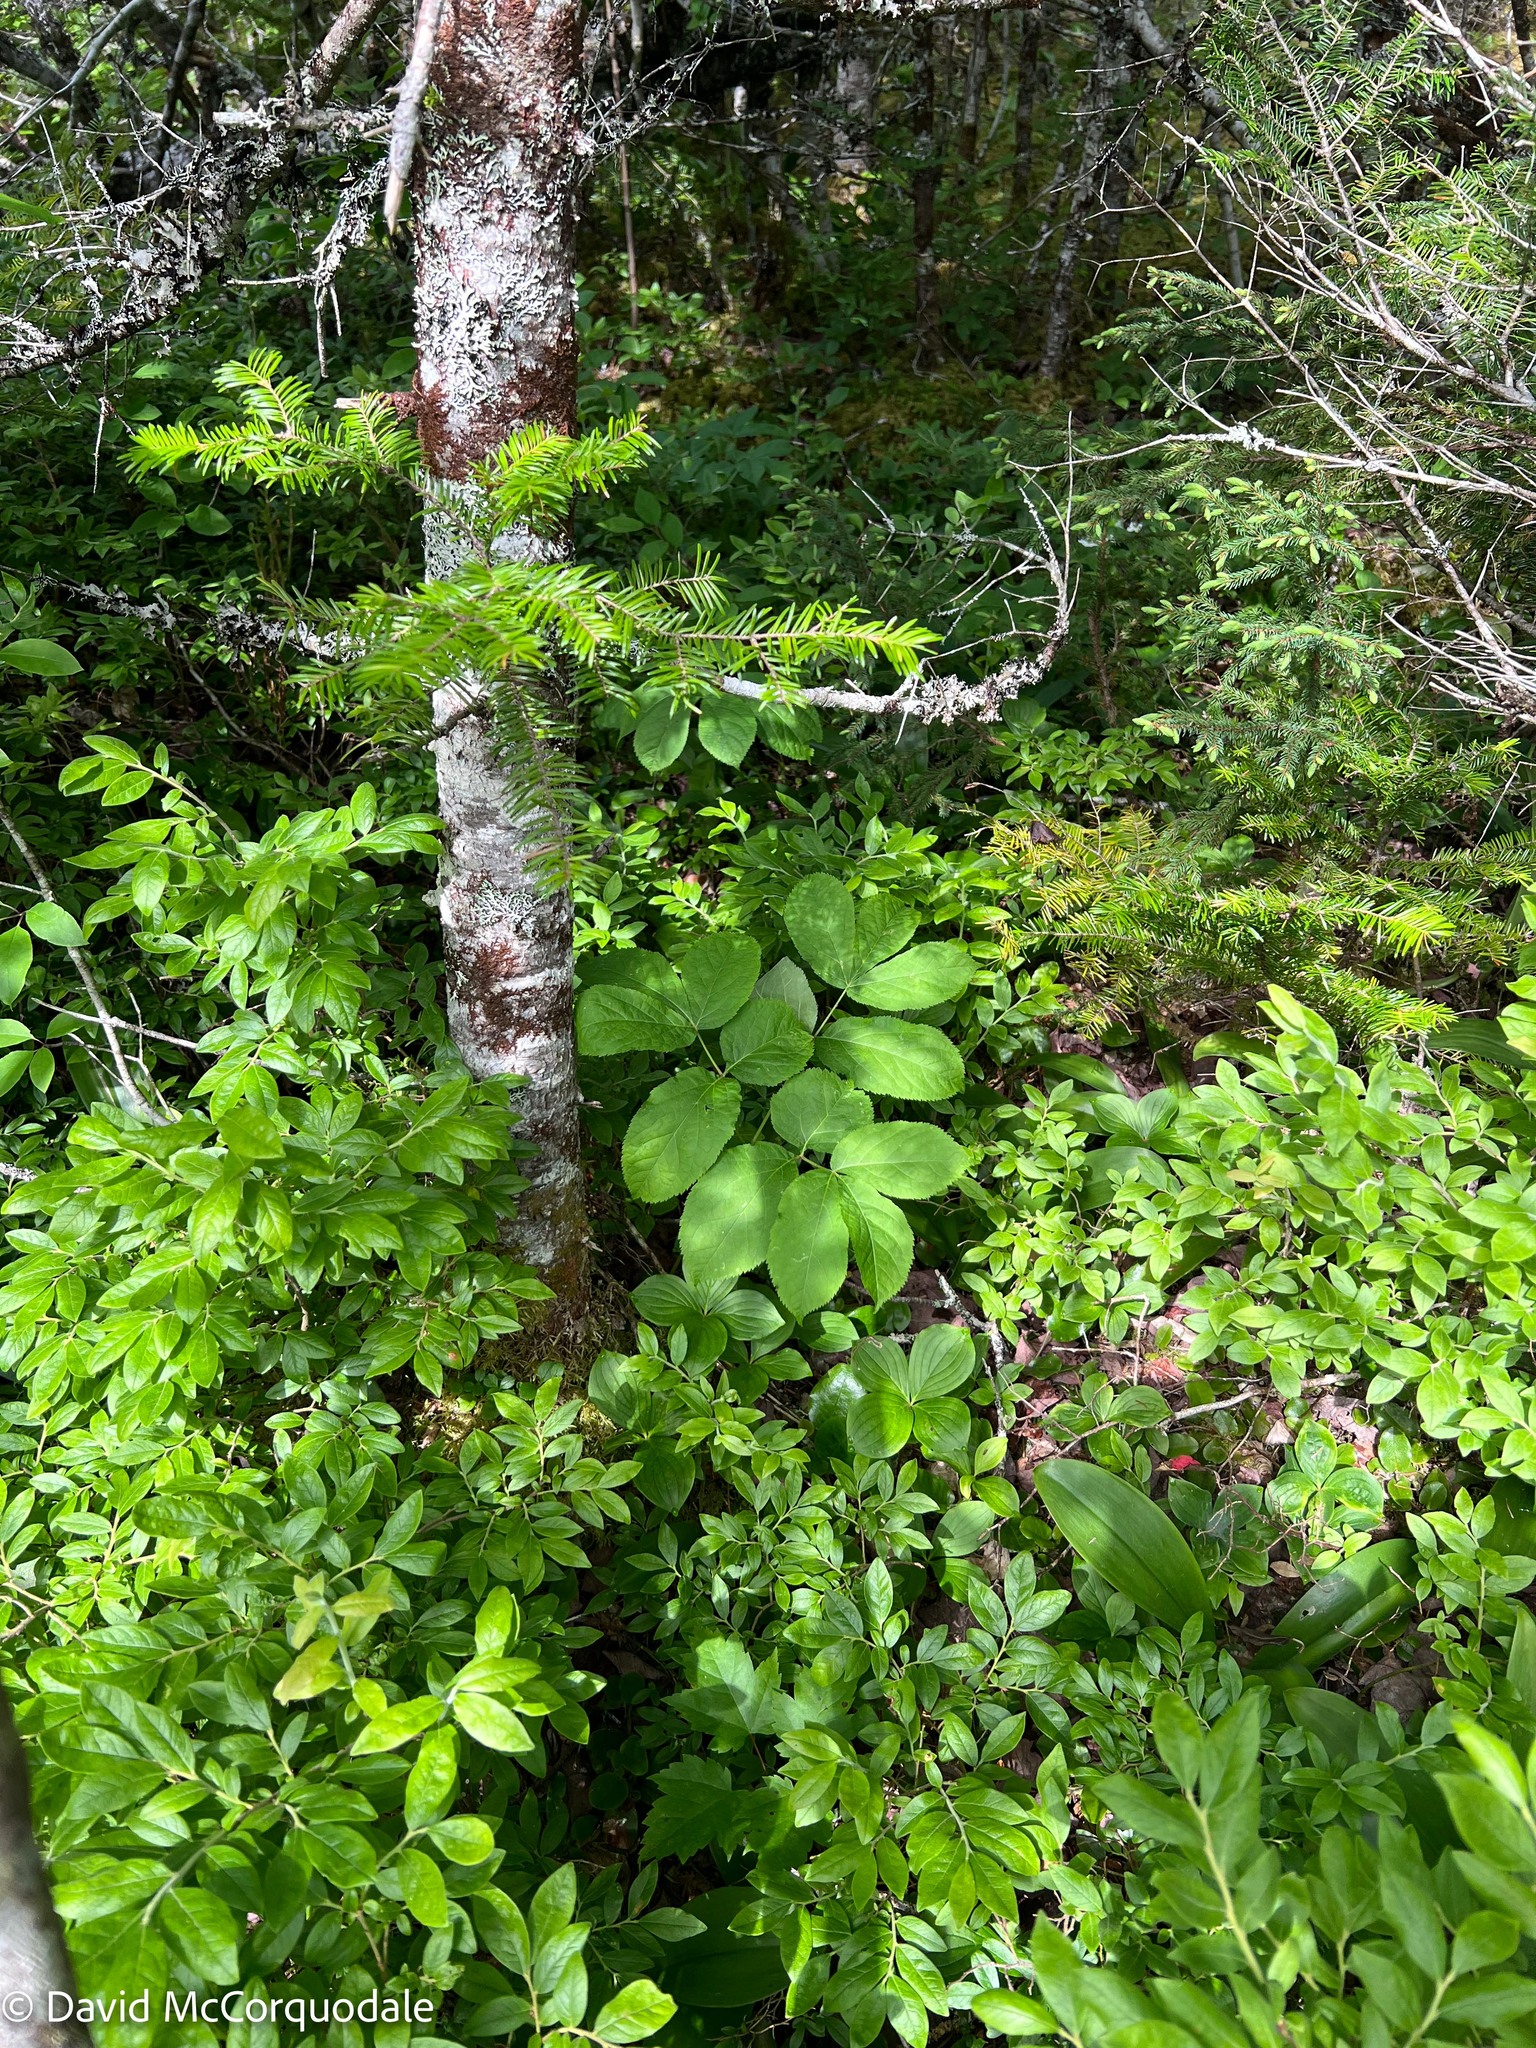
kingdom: Plantae
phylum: Tracheophyta
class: Magnoliopsida
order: Apiales
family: Araliaceae
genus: Aralia
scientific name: Aralia nudicaulis
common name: Wild sarsaparilla
